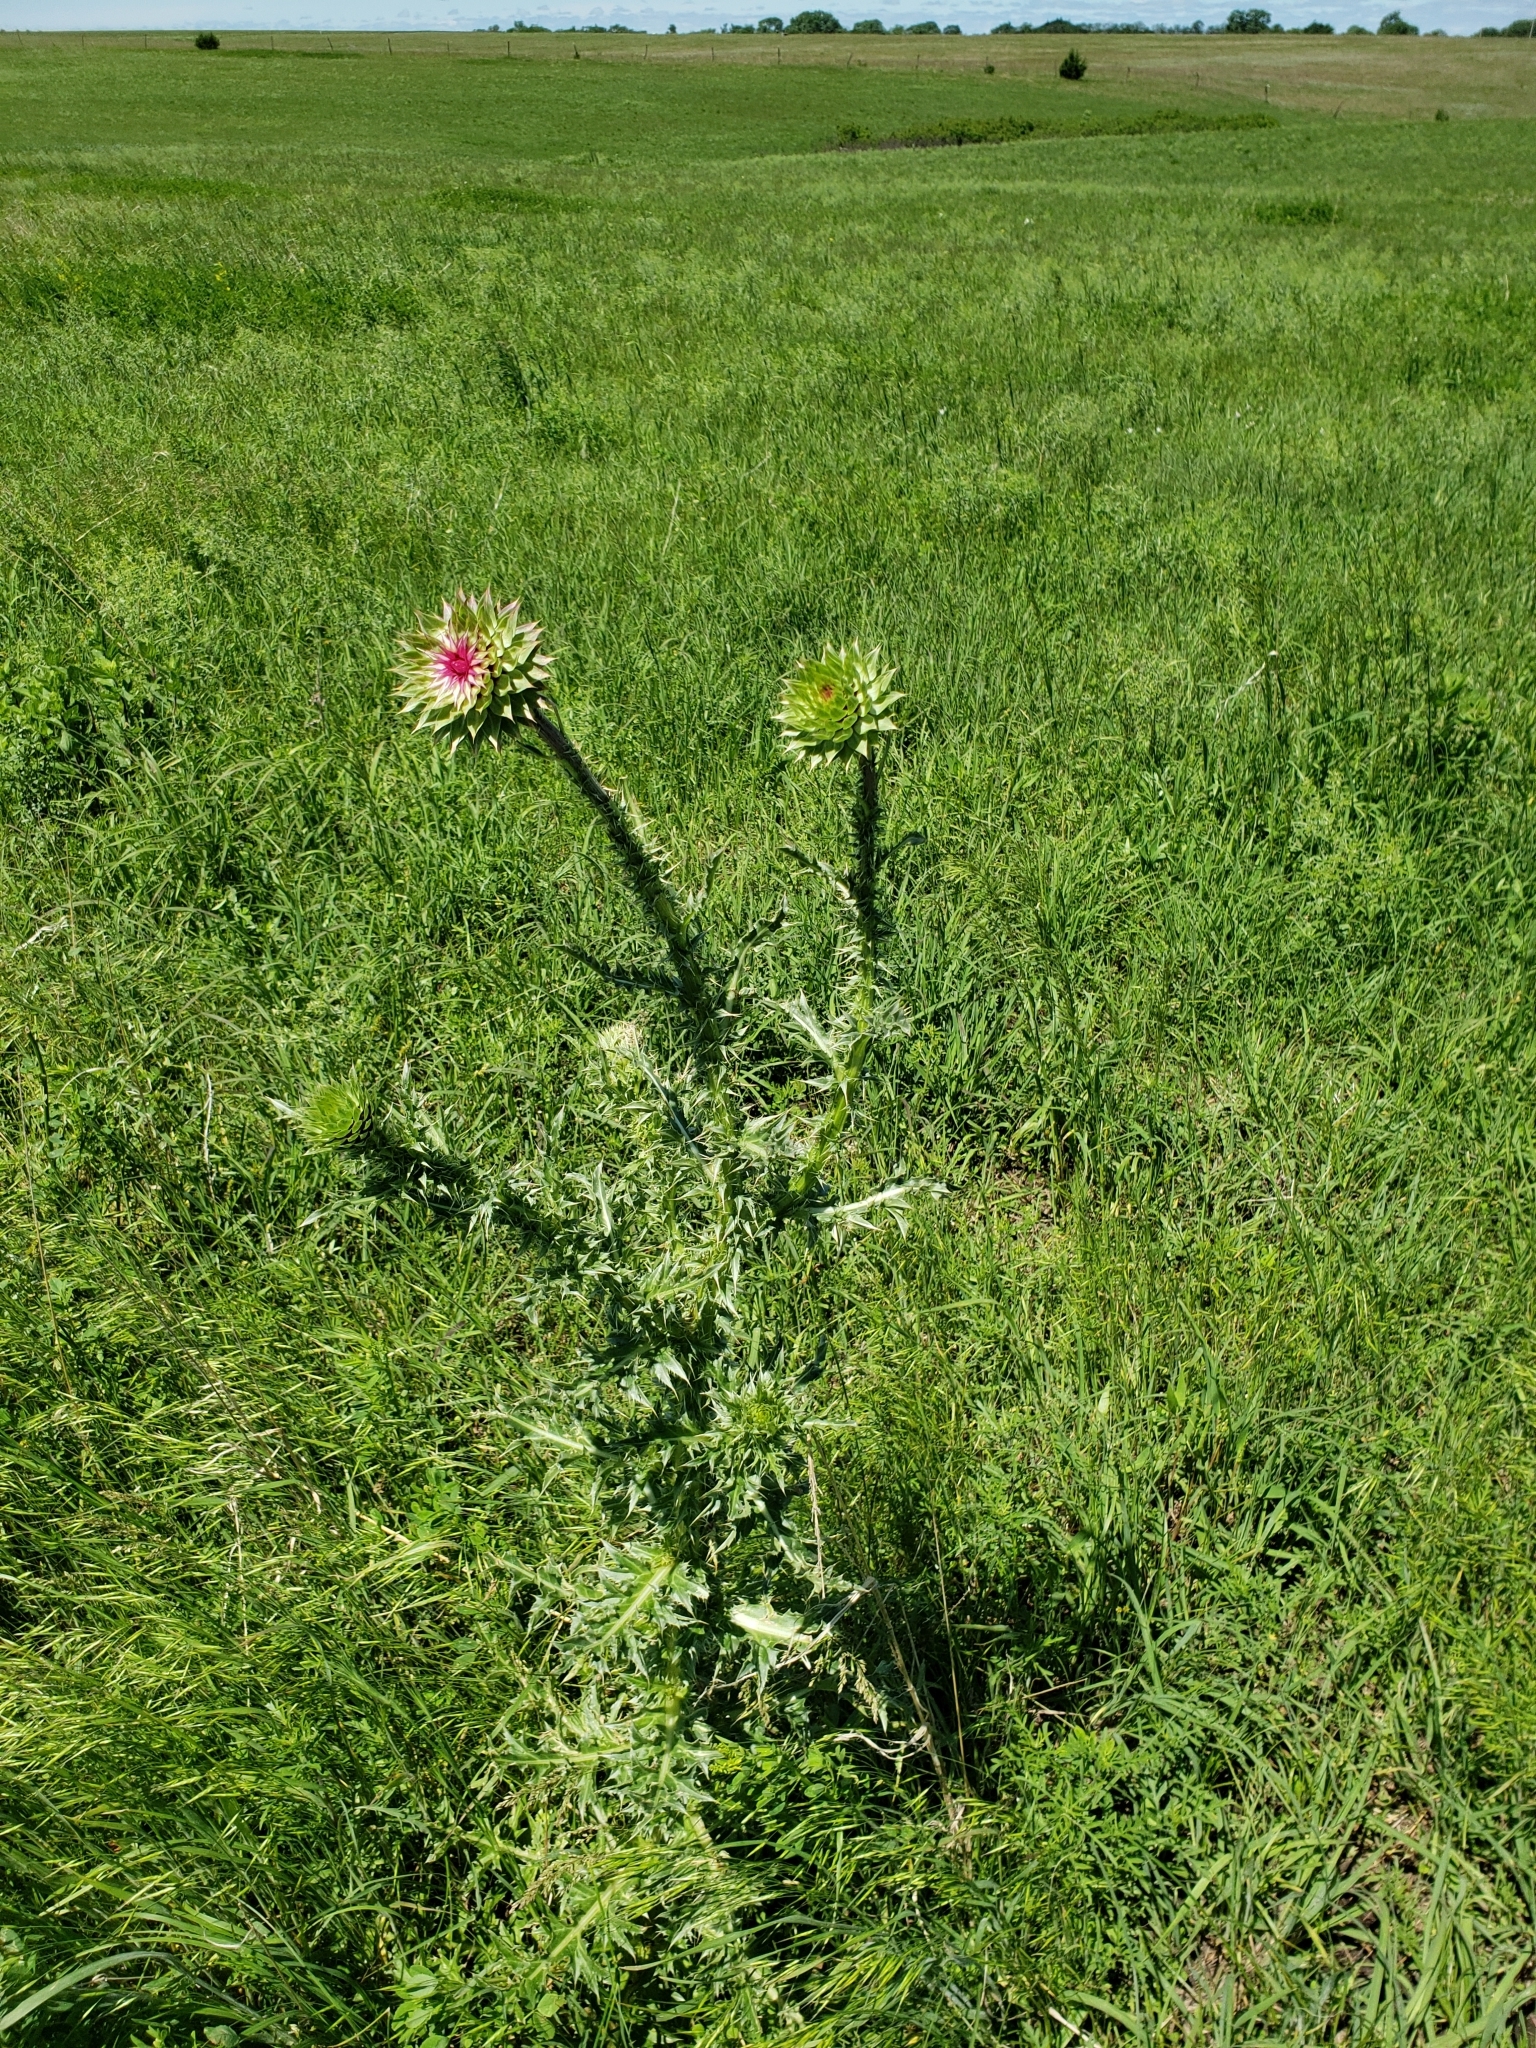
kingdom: Plantae
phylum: Tracheophyta
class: Magnoliopsida
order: Asterales
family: Asteraceae
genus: Carduus
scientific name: Carduus nutans
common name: Musk thistle
